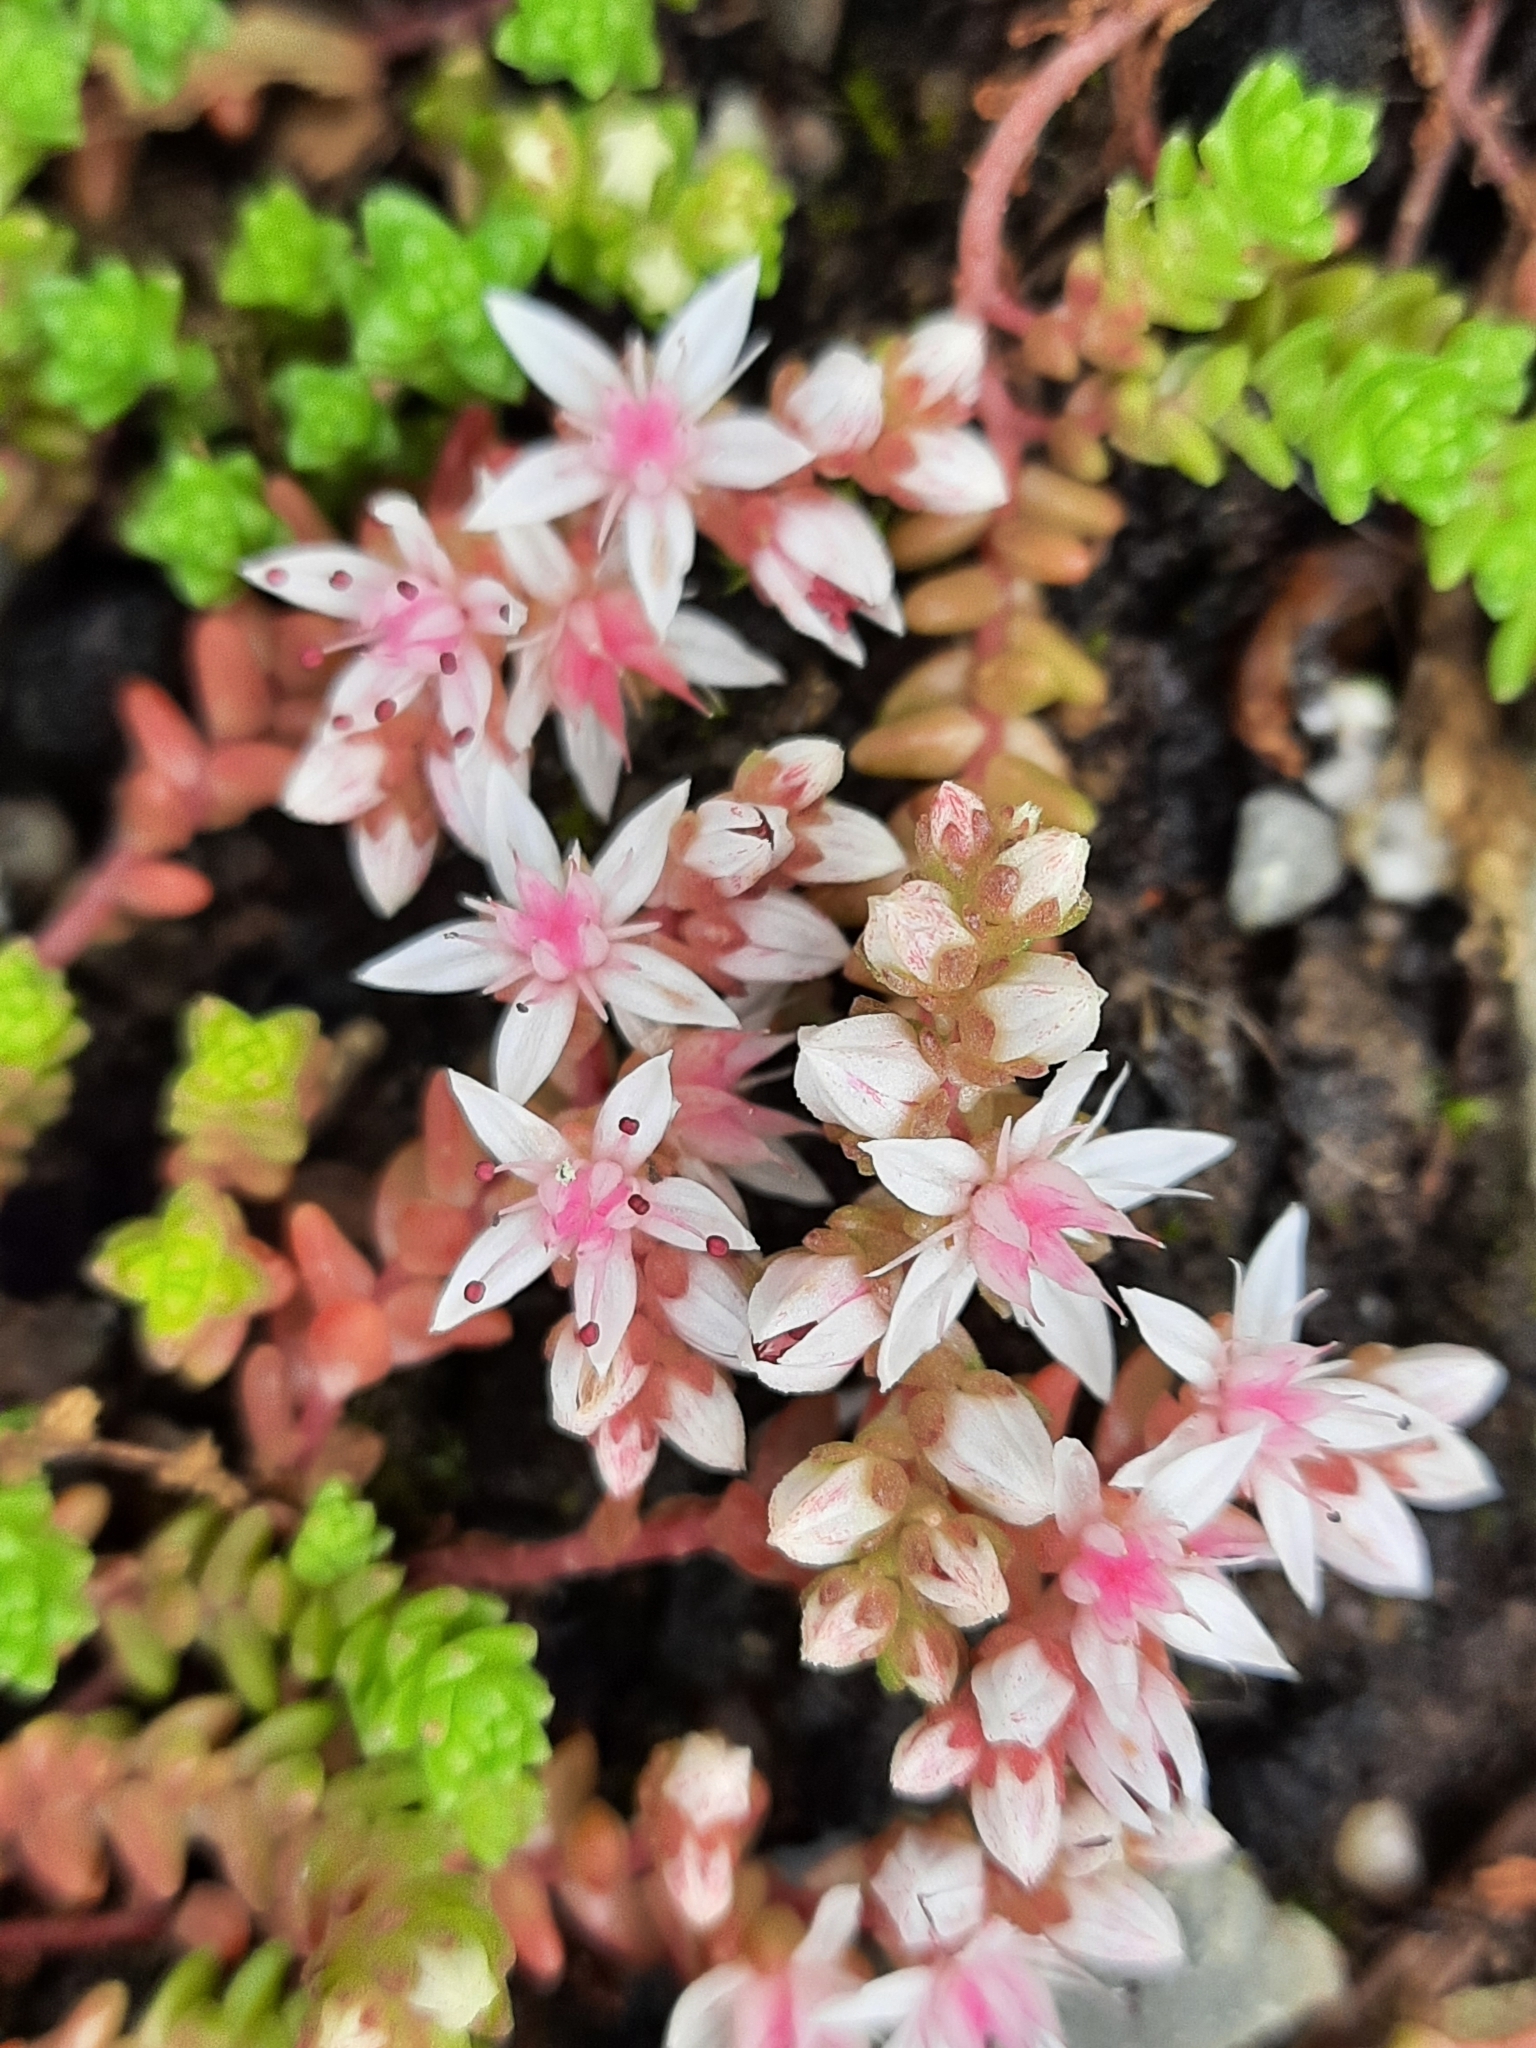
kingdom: Plantae
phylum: Tracheophyta
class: Magnoliopsida
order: Saxifragales
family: Crassulaceae
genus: Sedum
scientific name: Sedum anglicum
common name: English stonecrop
